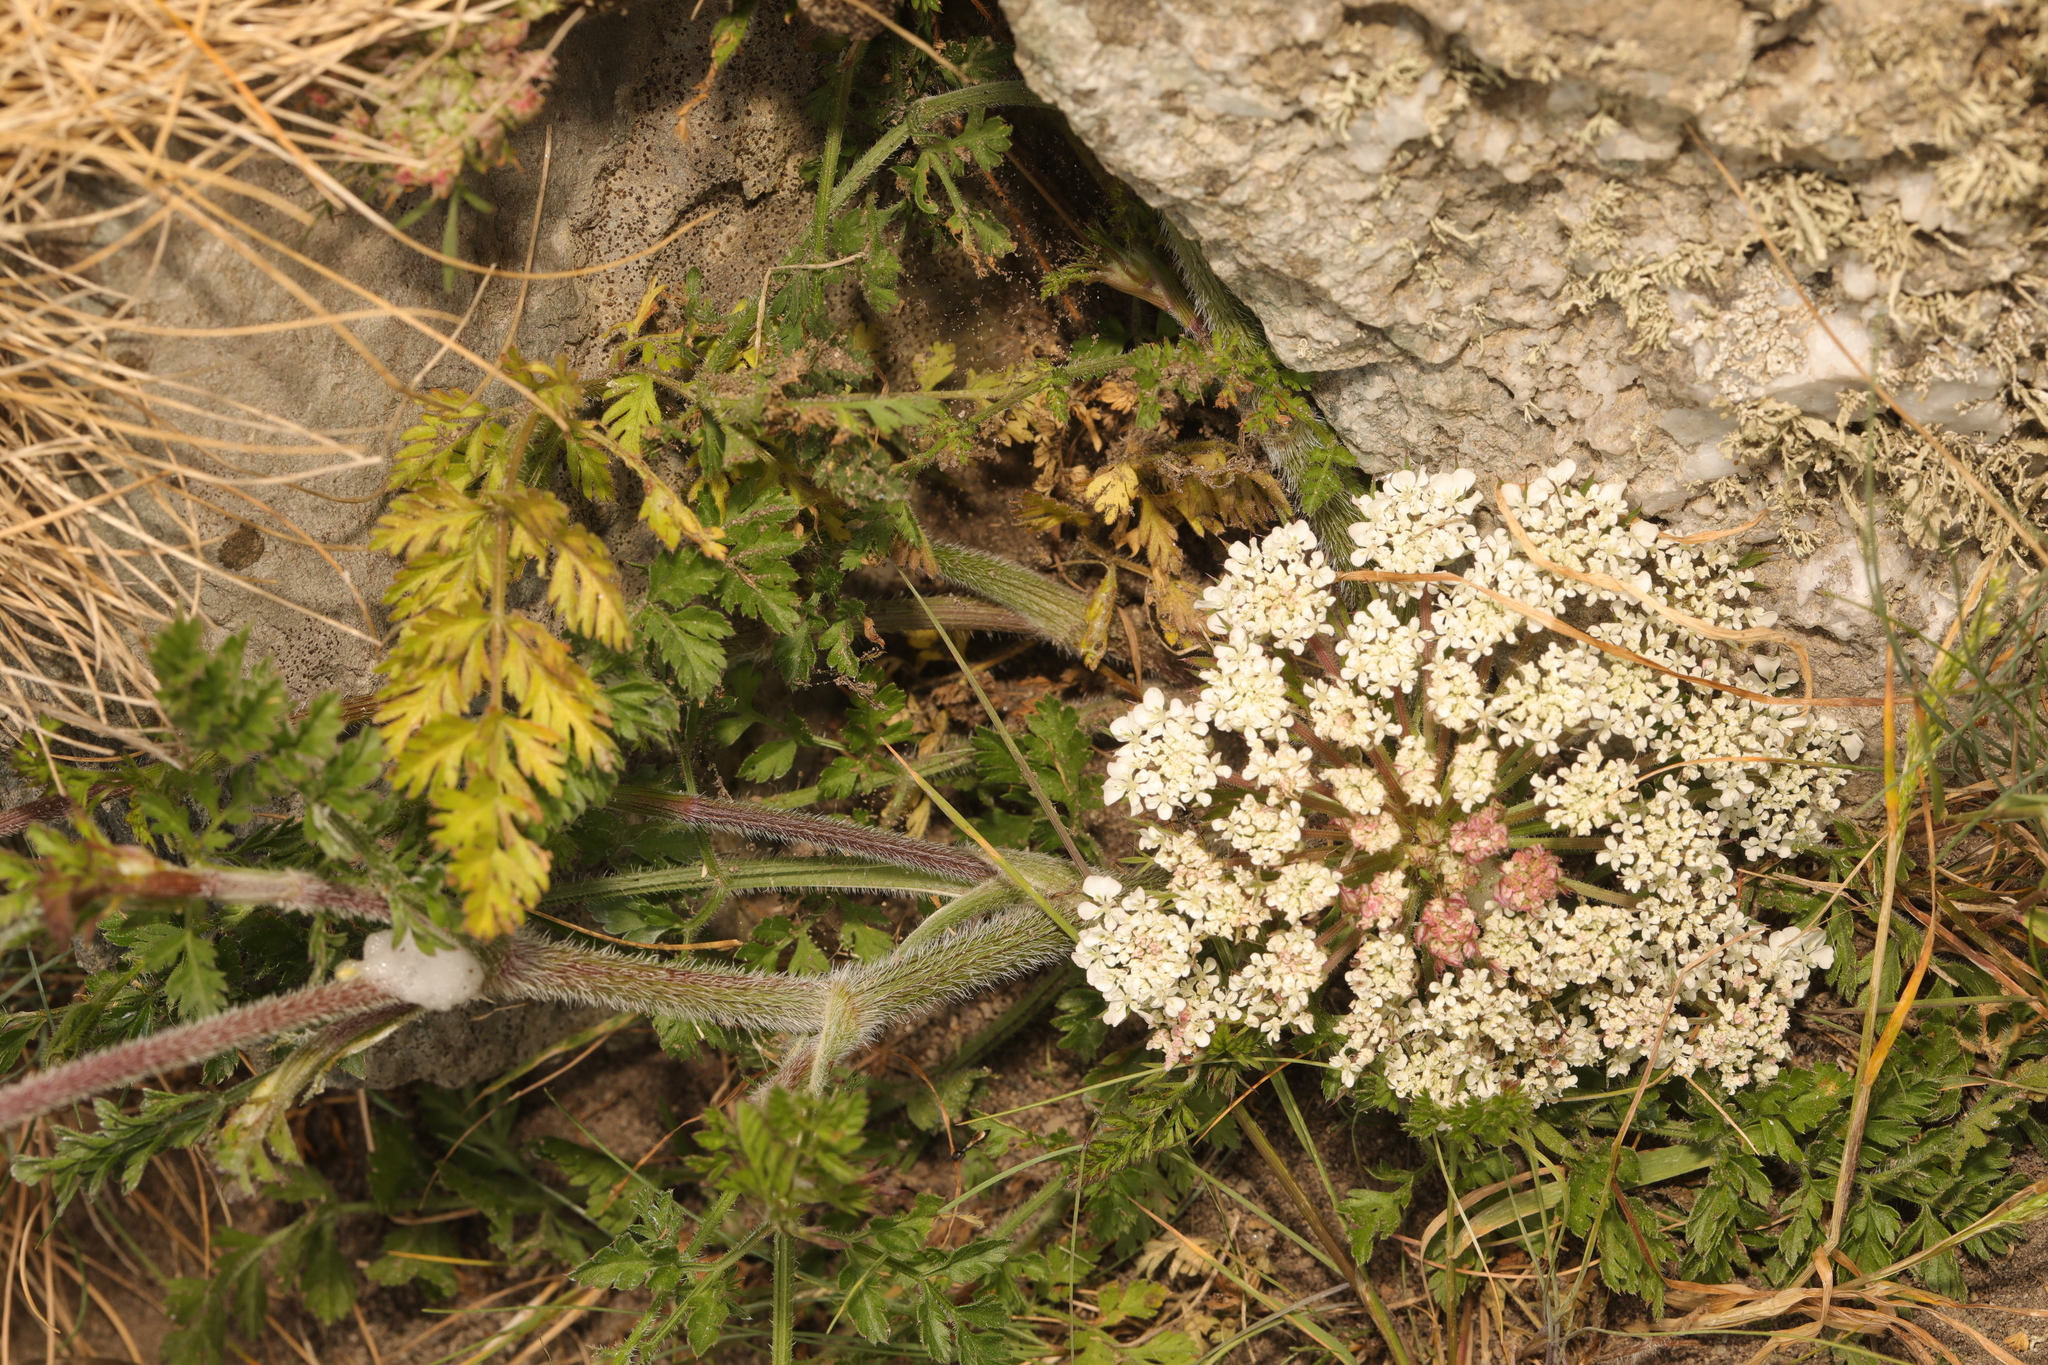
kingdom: Plantae
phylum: Tracheophyta
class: Magnoliopsida
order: Apiales
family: Apiaceae
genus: Chaerophyllum
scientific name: Chaerophyllum temulum
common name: Rough chervil
